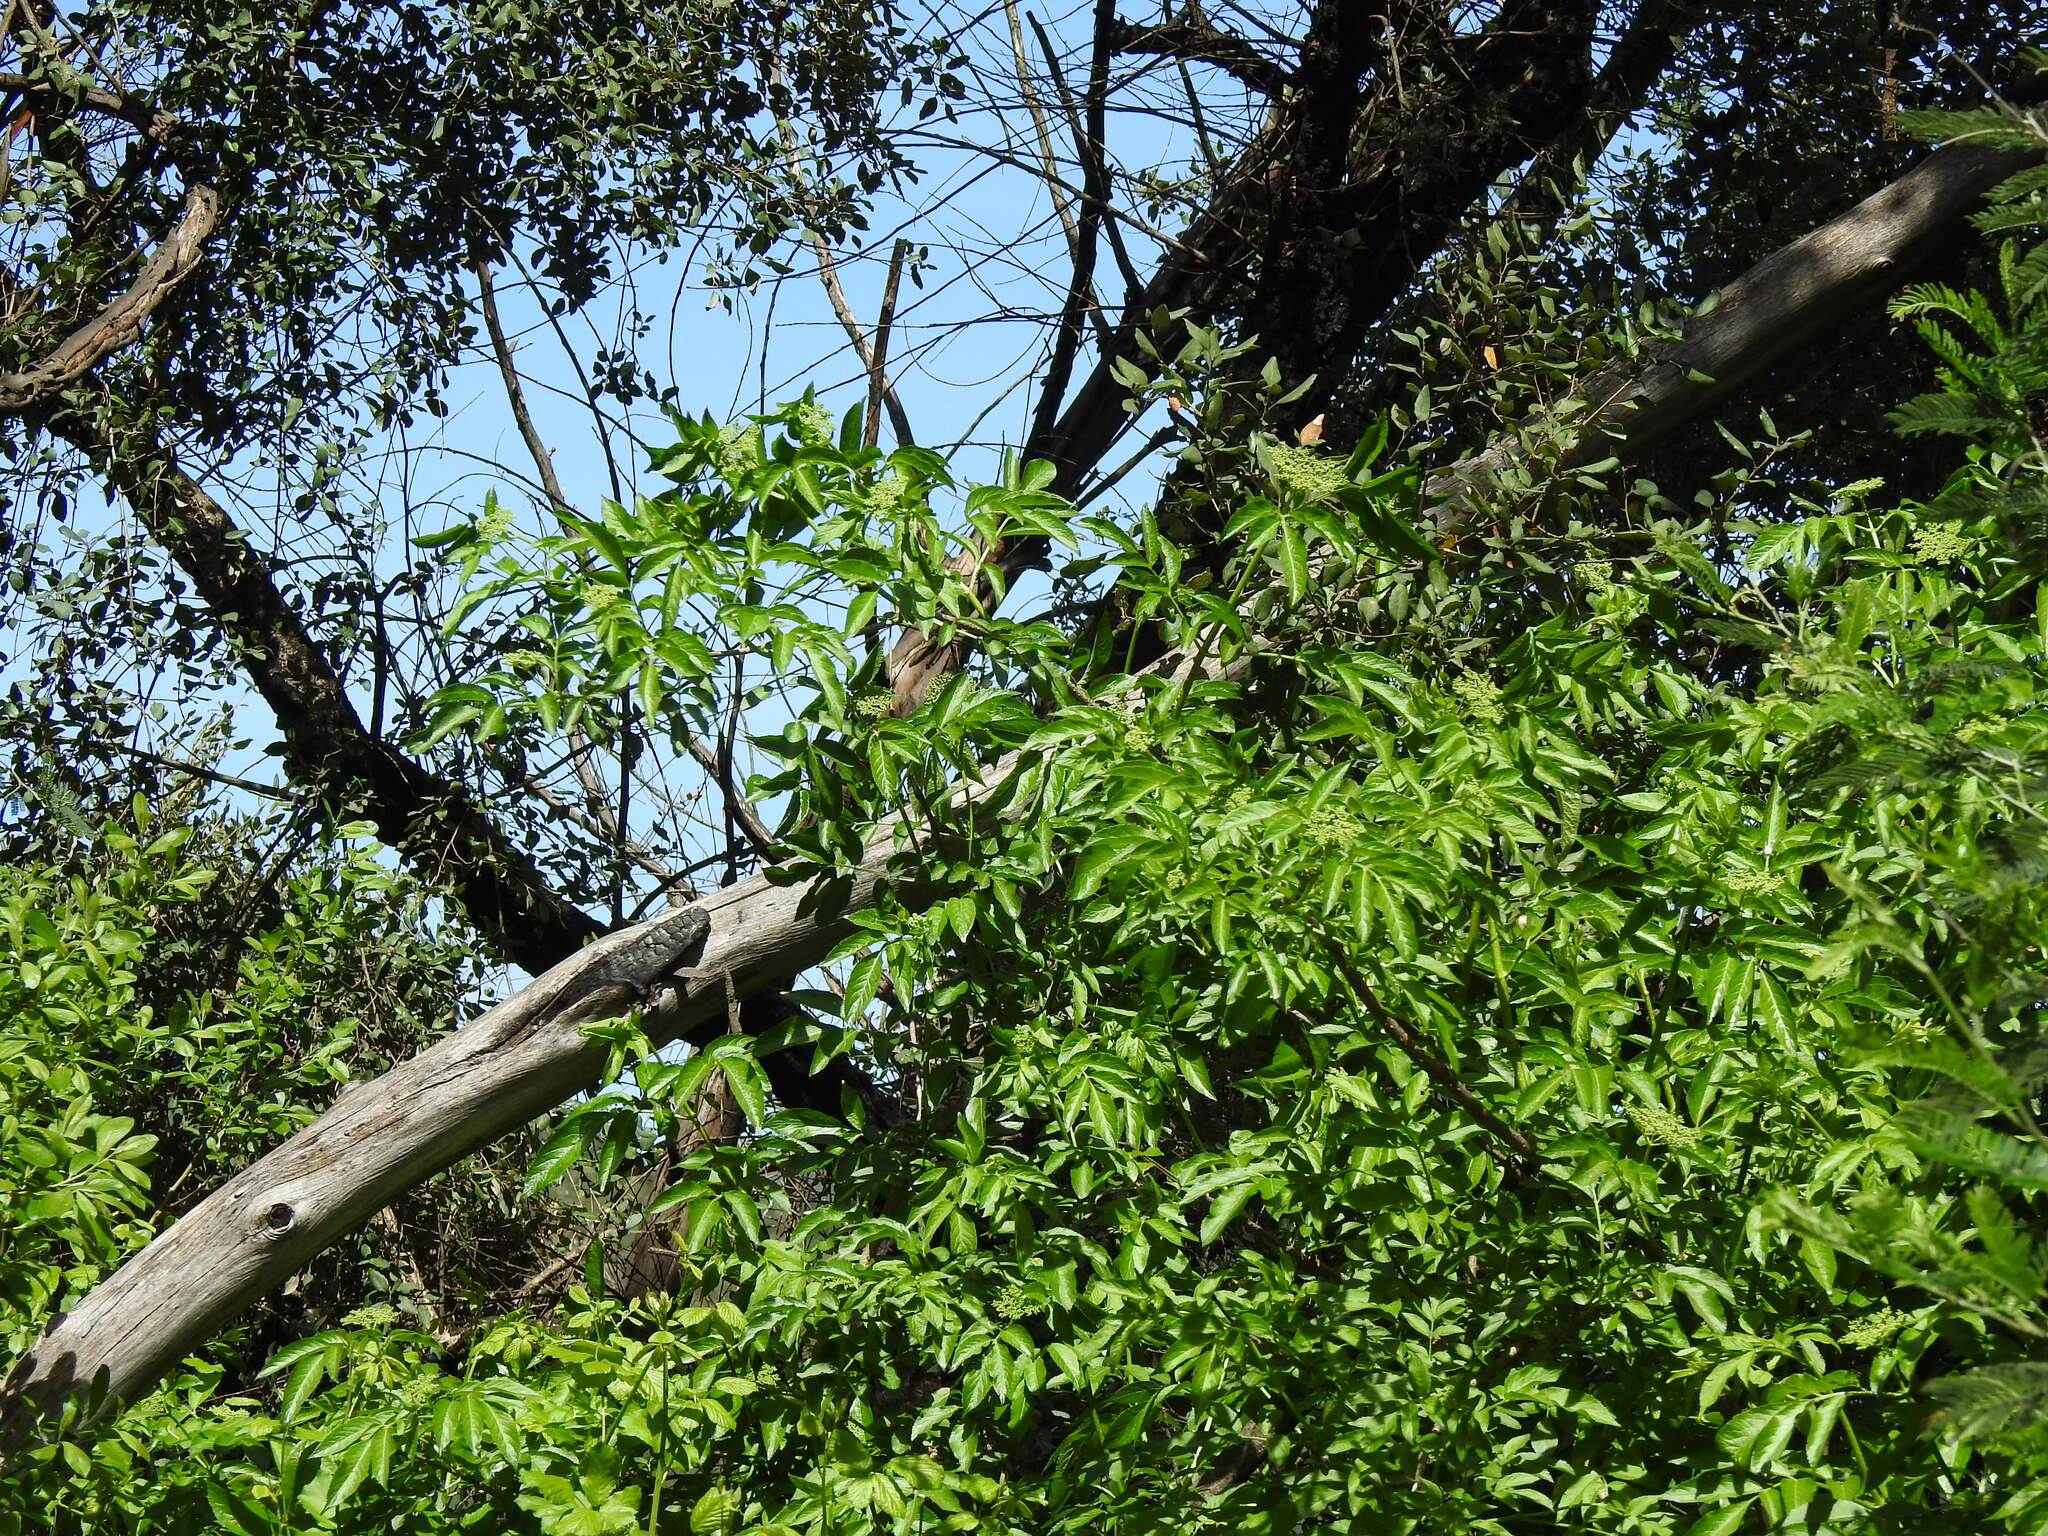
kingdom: Plantae
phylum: Tracheophyta
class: Magnoliopsida
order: Dipsacales
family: Viburnaceae
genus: Sambucus
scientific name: Sambucus nigra
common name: Elder
